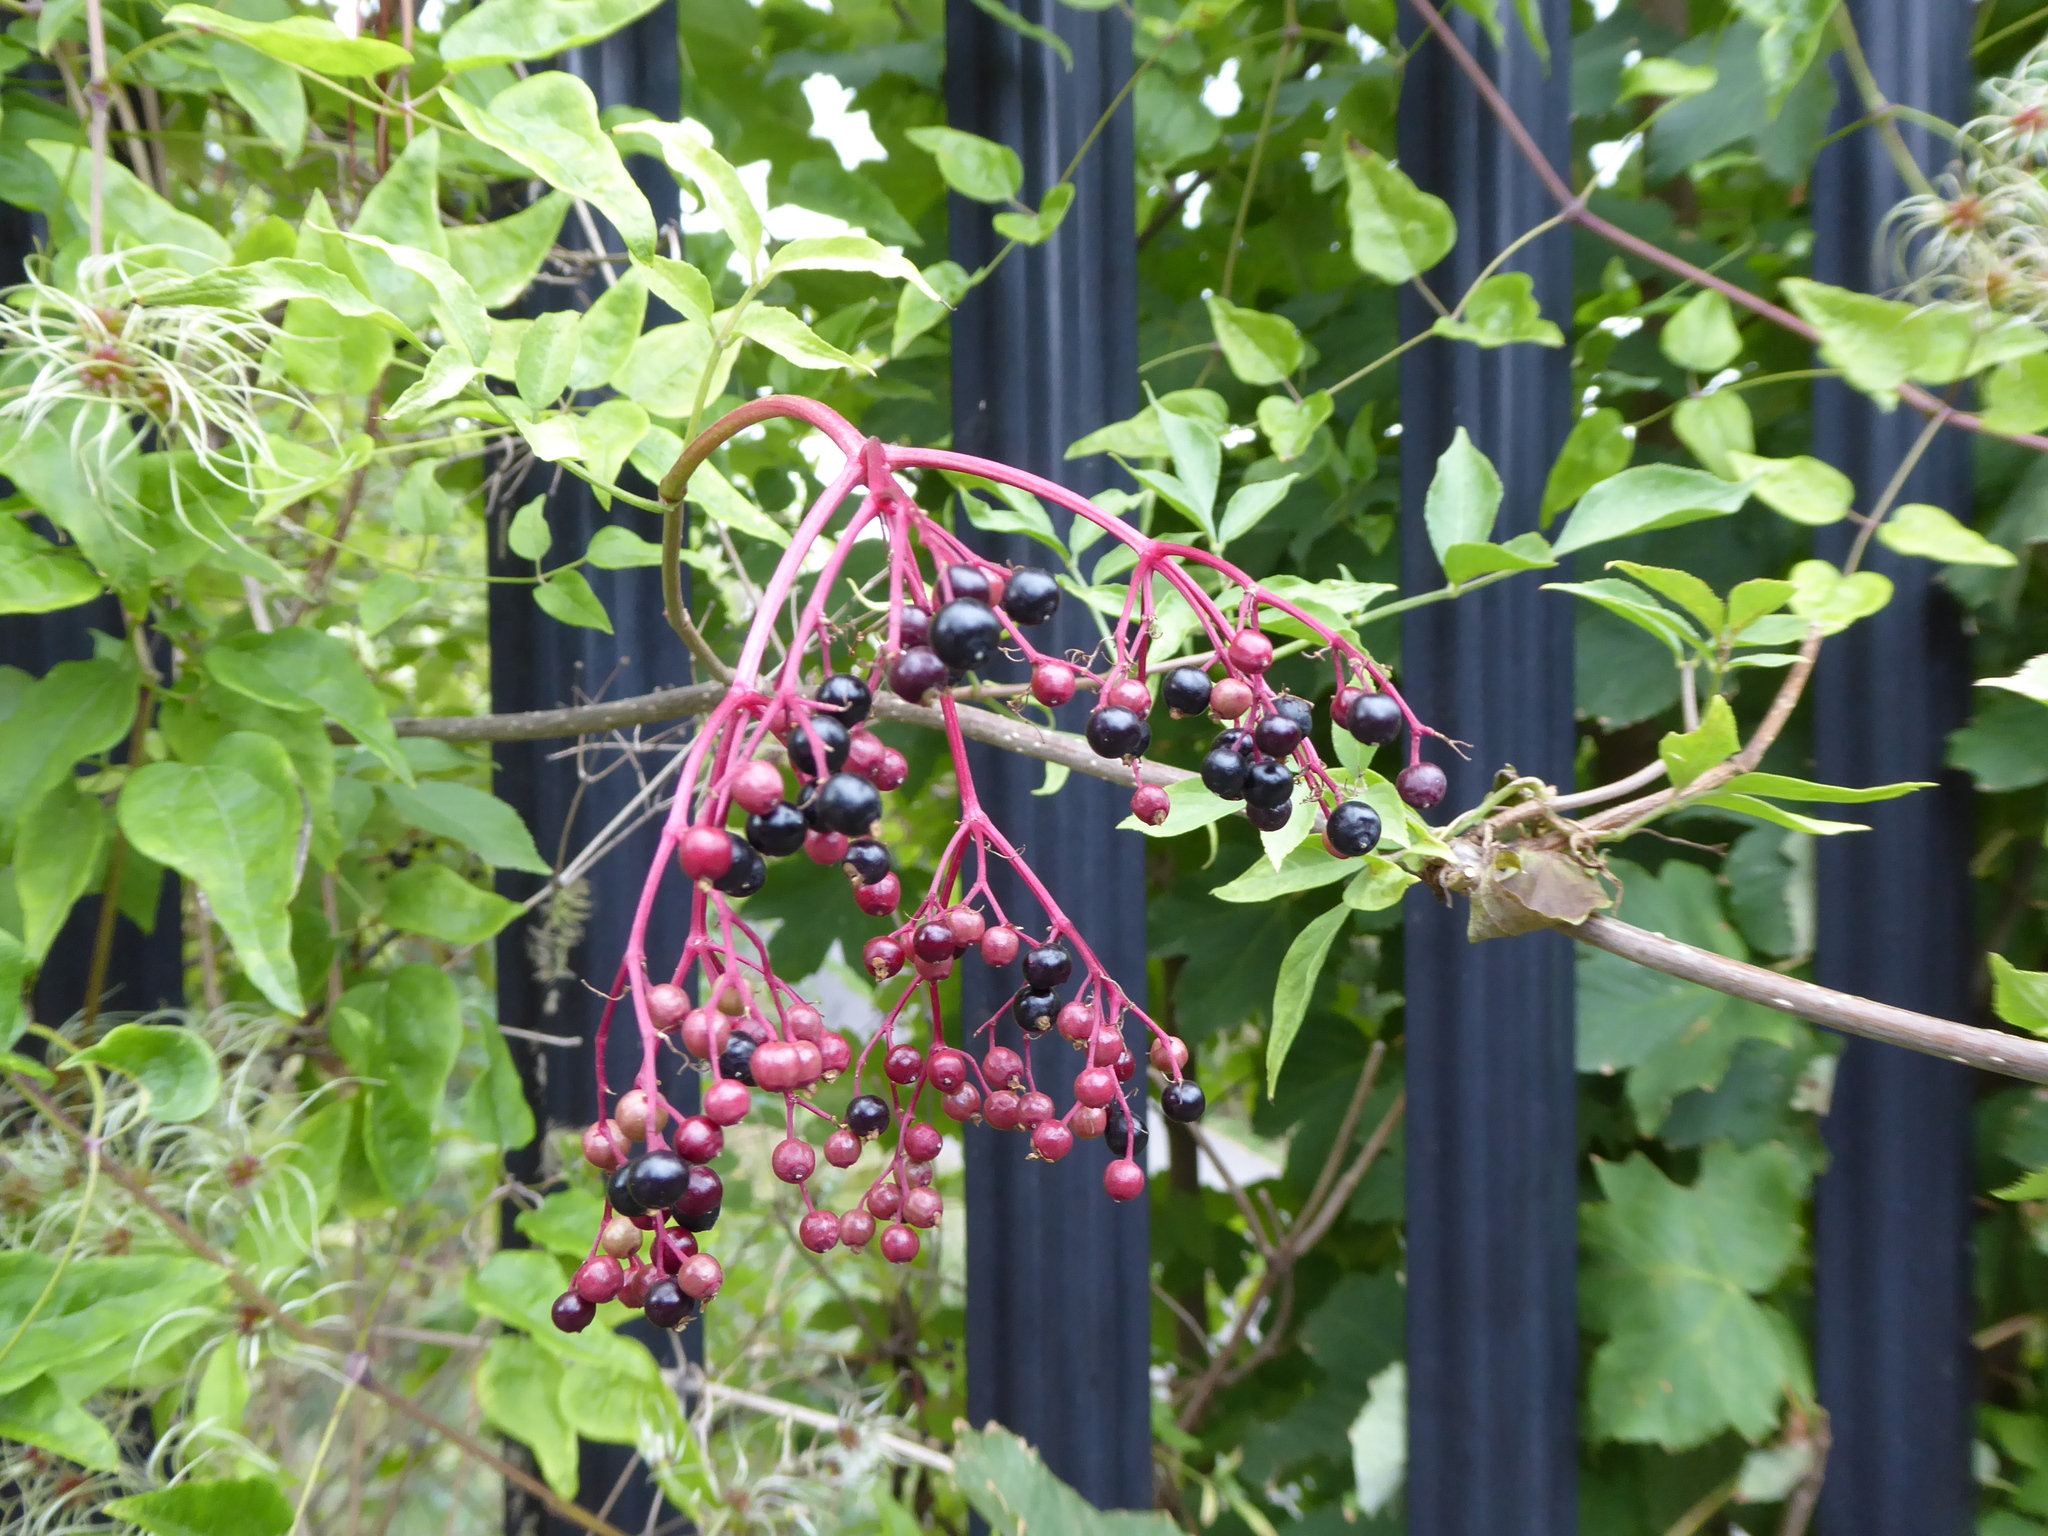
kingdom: Plantae
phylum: Tracheophyta
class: Magnoliopsida
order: Dipsacales
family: Viburnaceae
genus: Sambucus
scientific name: Sambucus nigra
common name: Elder
